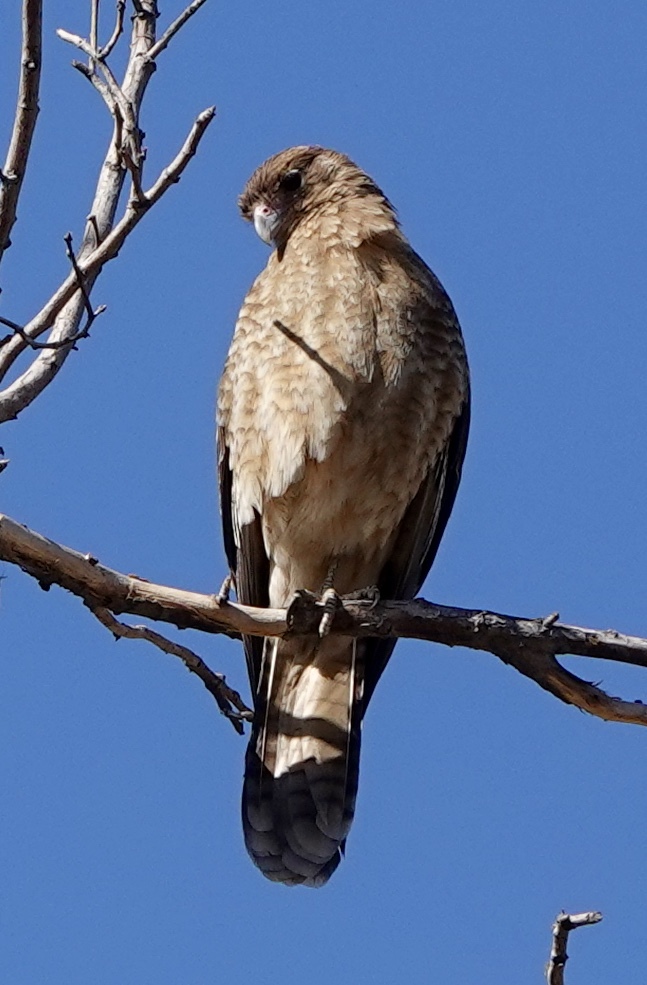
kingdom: Animalia
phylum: Chordata
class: Aves
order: Falconiformes
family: Falconidae
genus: Daptrius
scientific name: Daptrius
